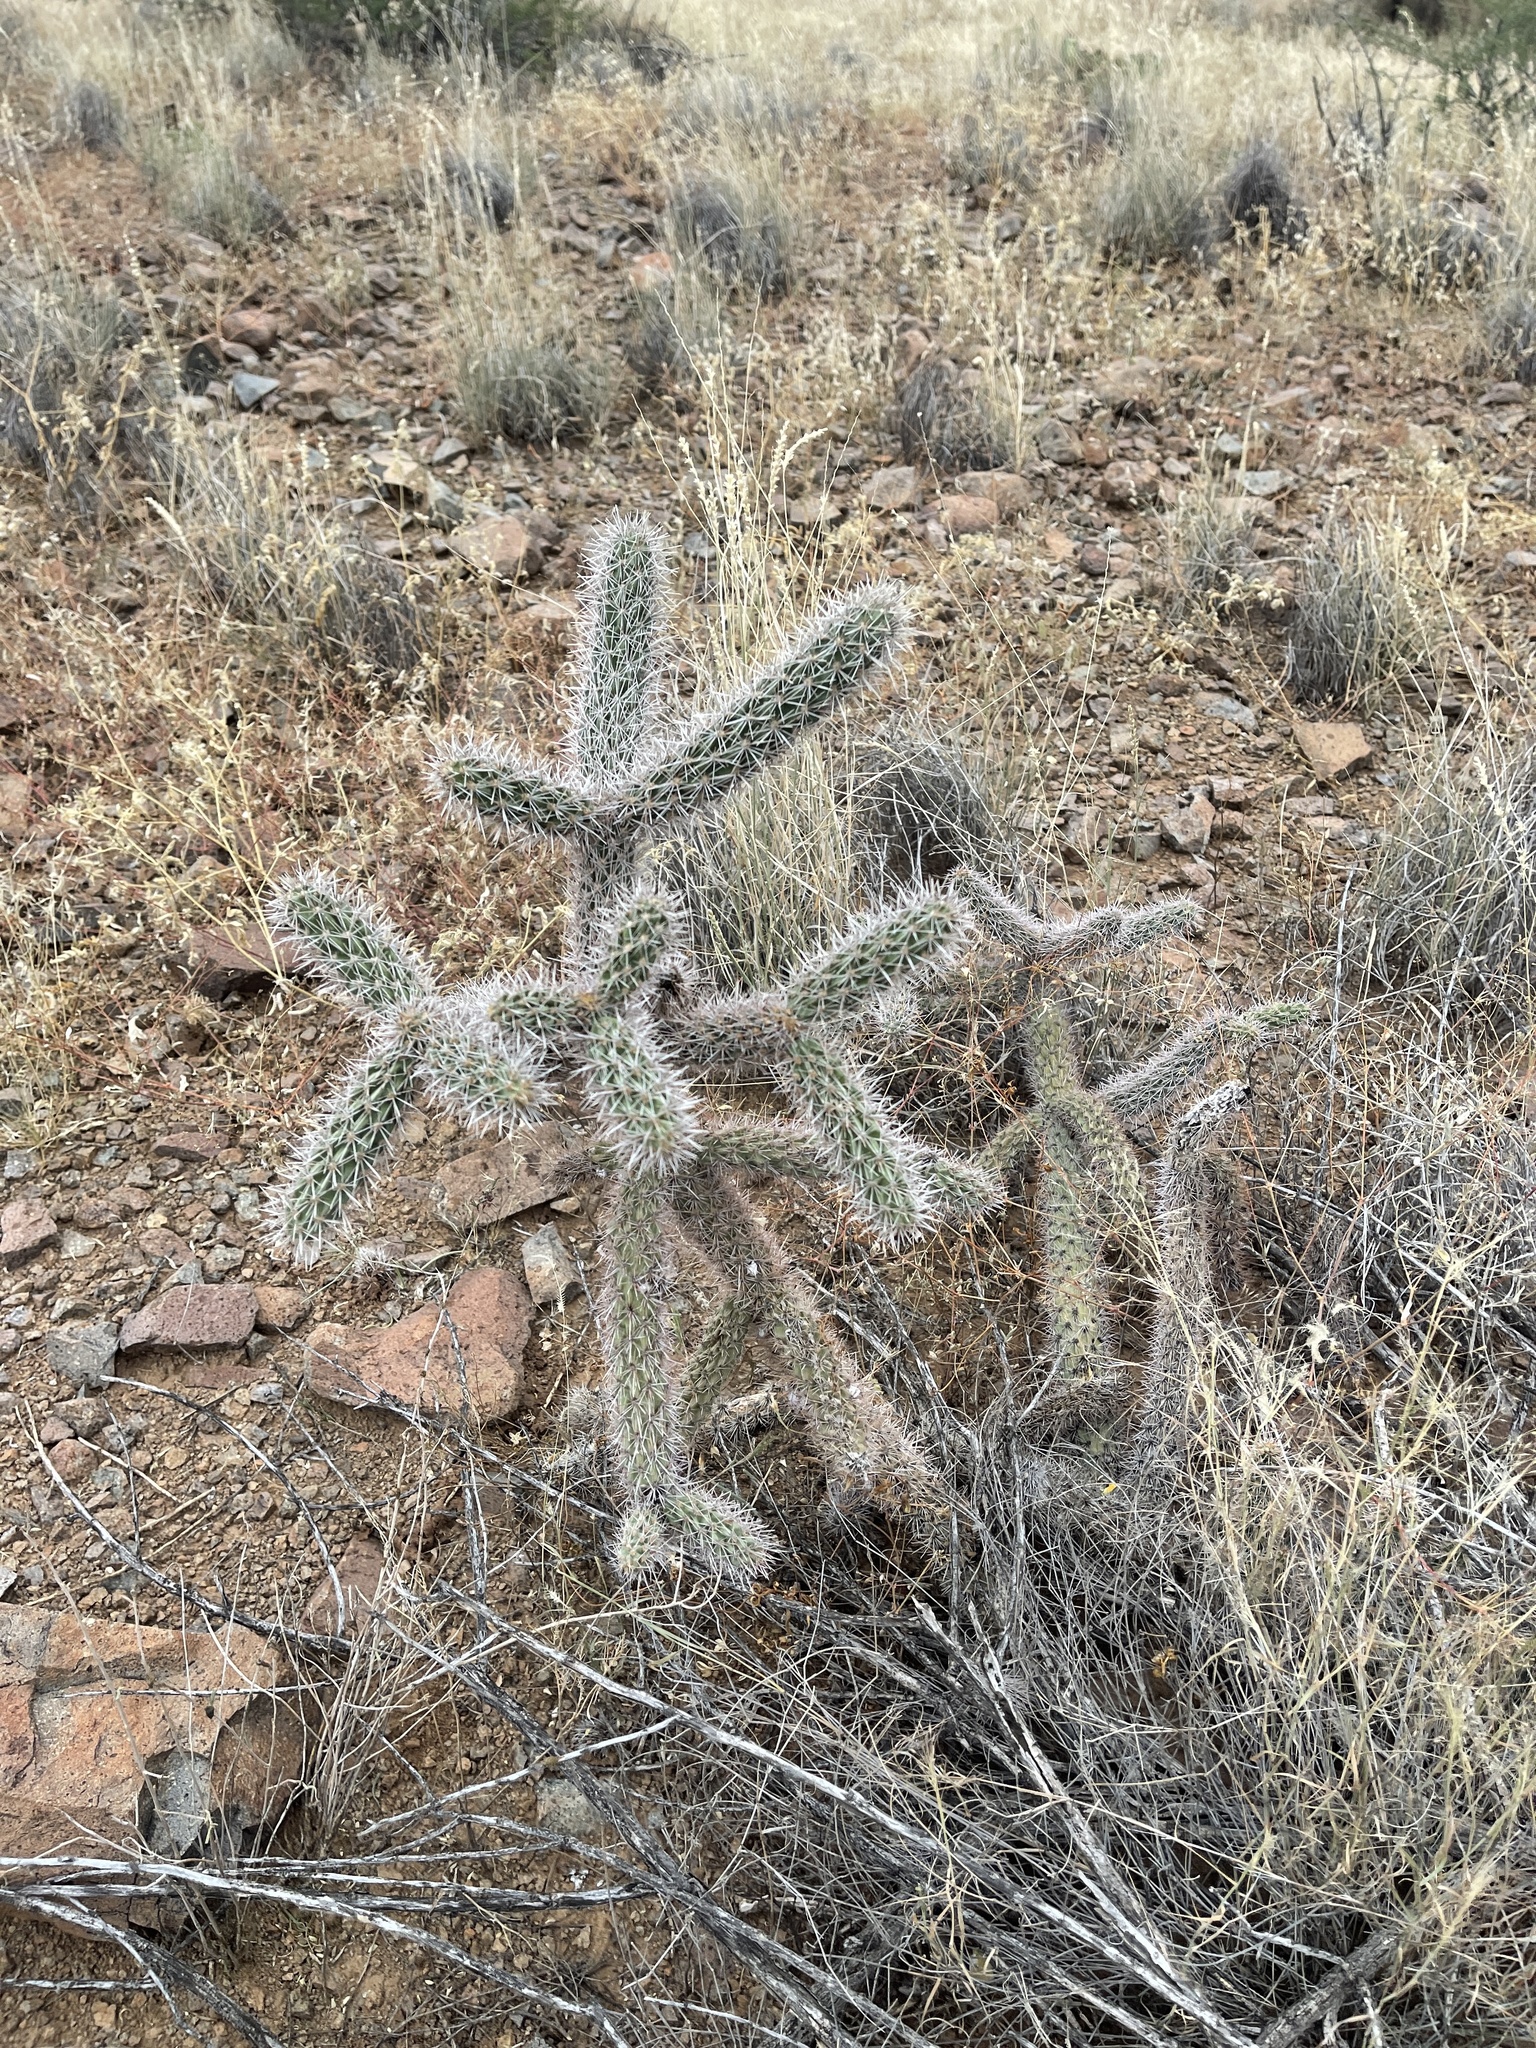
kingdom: Plantae
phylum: Tracheophyta
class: Magnoliopsida
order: Caryophyllales
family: Cactaceae
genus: Cylindropuntia
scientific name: Cylindropuntia imbricata
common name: Candelabrum cactus
